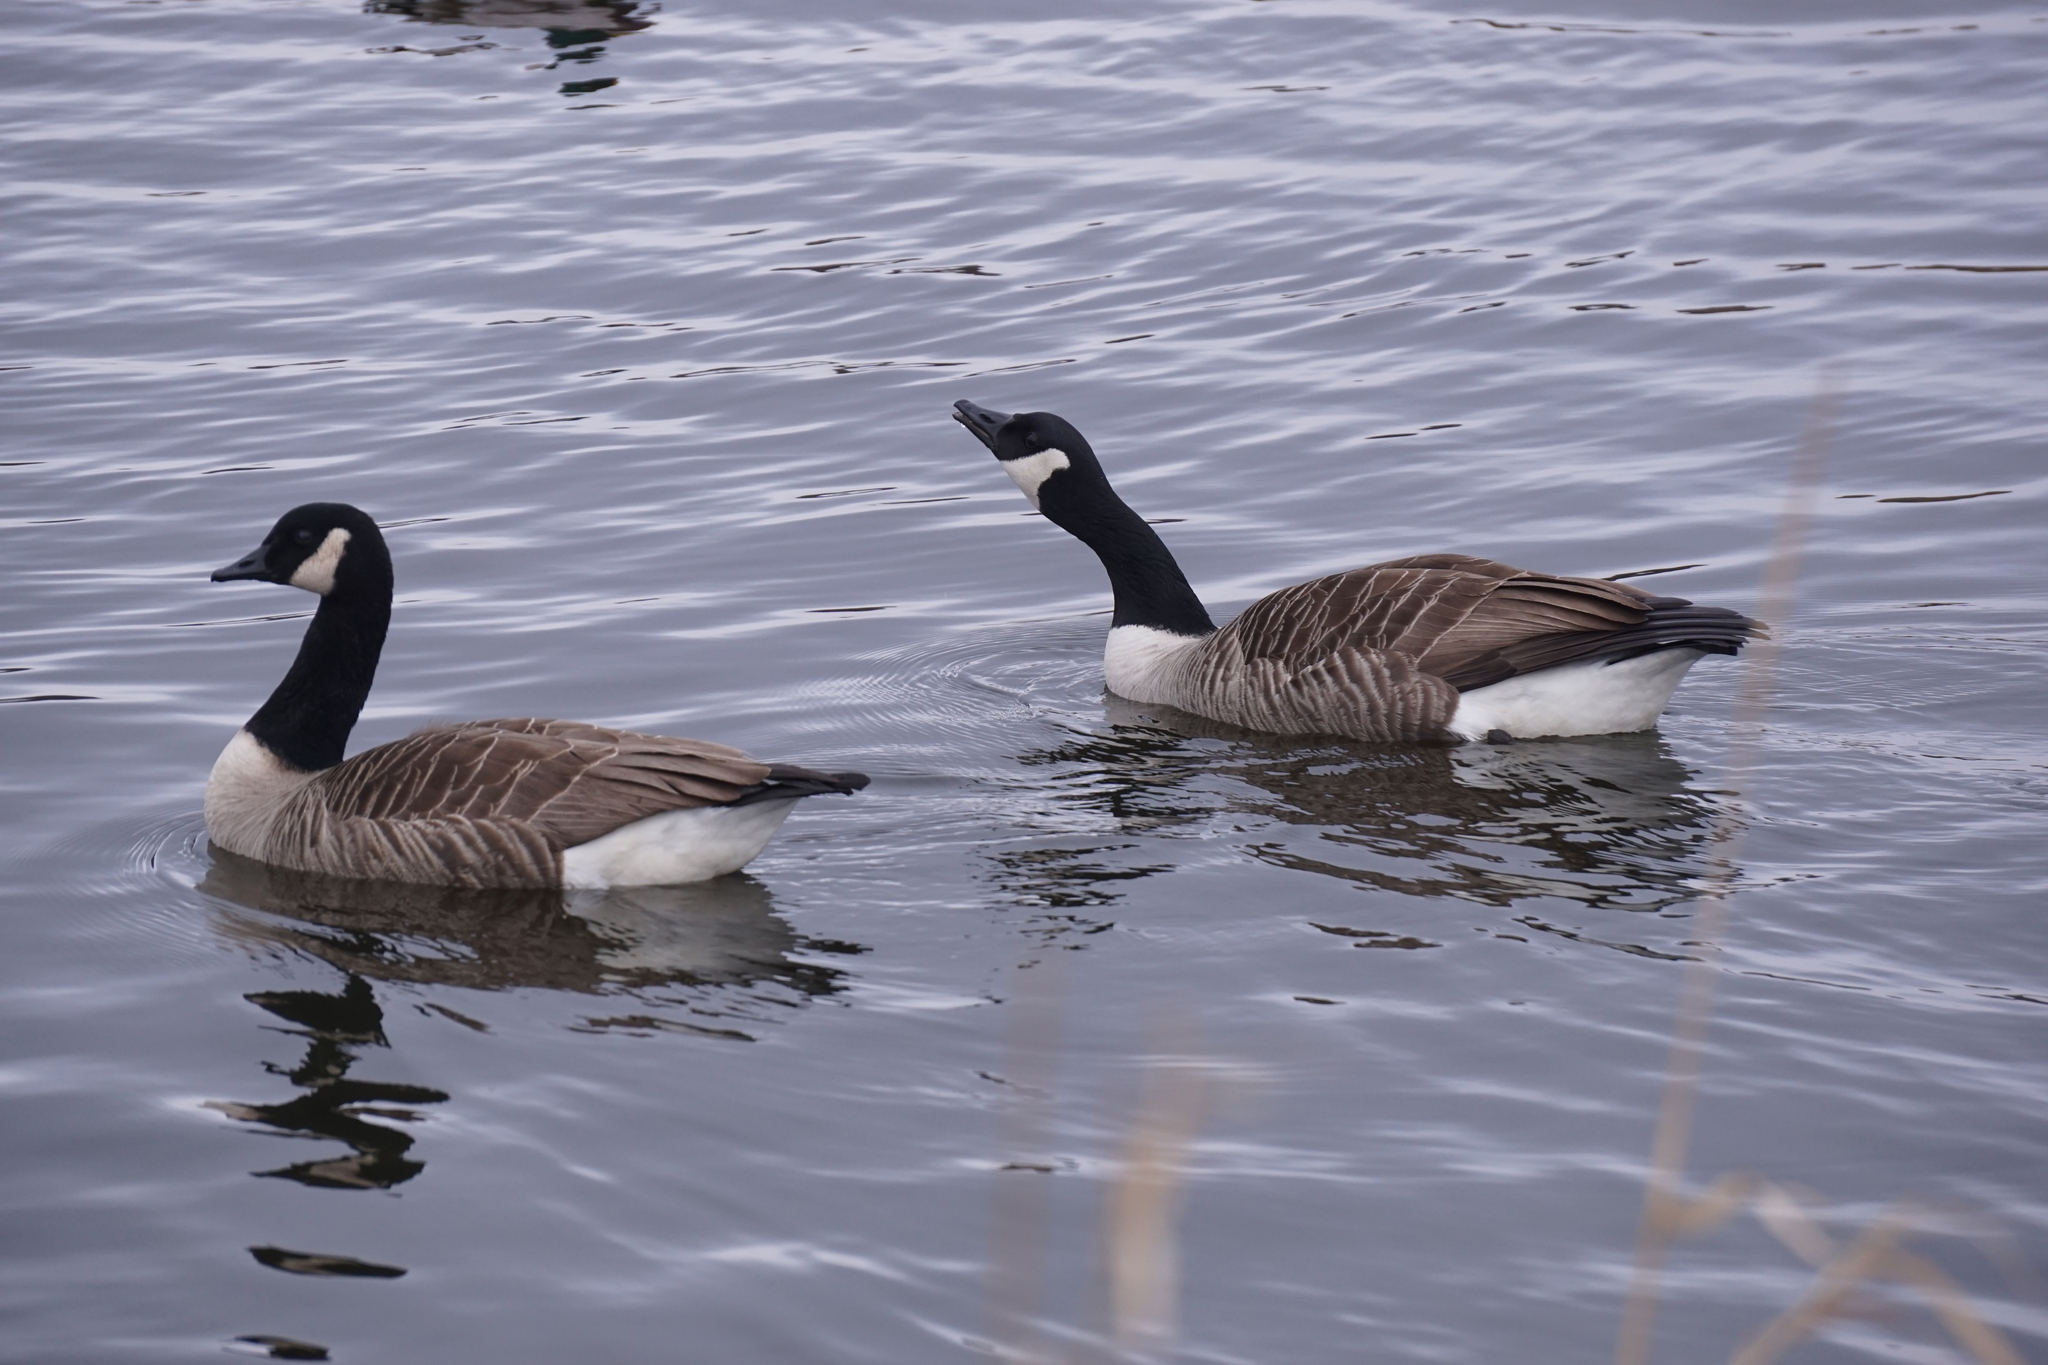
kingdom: Animalia
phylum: Chordata
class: Aves
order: Anseriformes
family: Anatidae
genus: Branta
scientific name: Branta canadensis
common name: Canada goose
